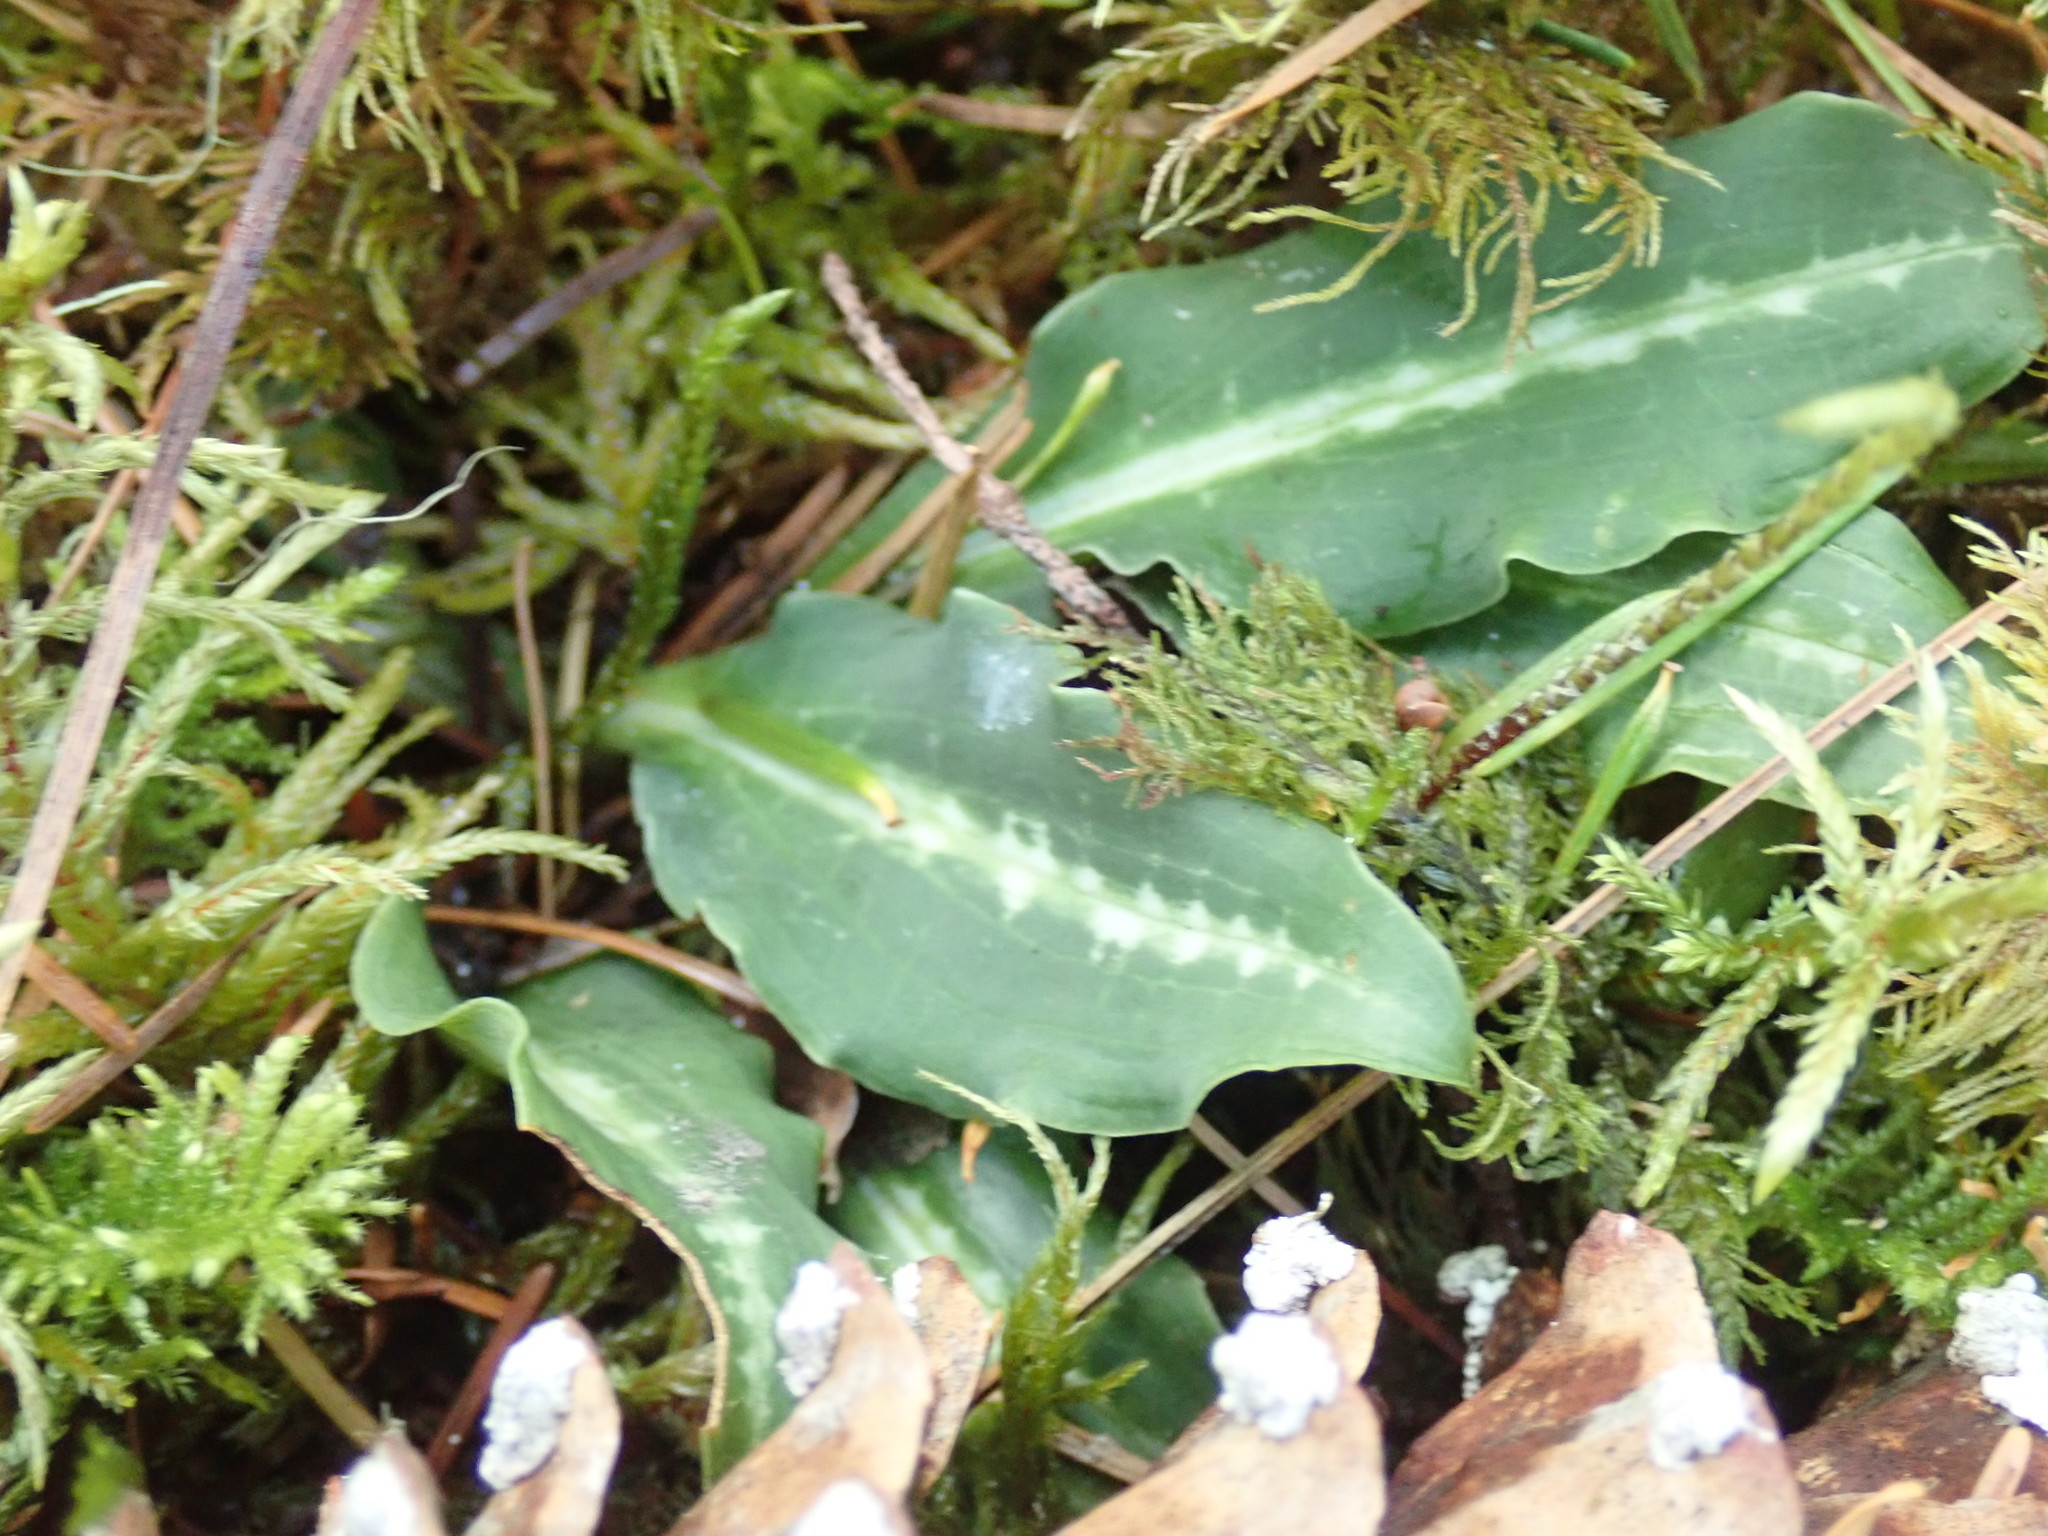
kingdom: Plantae
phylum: Tracheophyta
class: Liliopsida
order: Asparagales
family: Orchidaceae
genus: Goodyera
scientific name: Goodyera oblongifolia
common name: Giant rattlesnake-plantain
